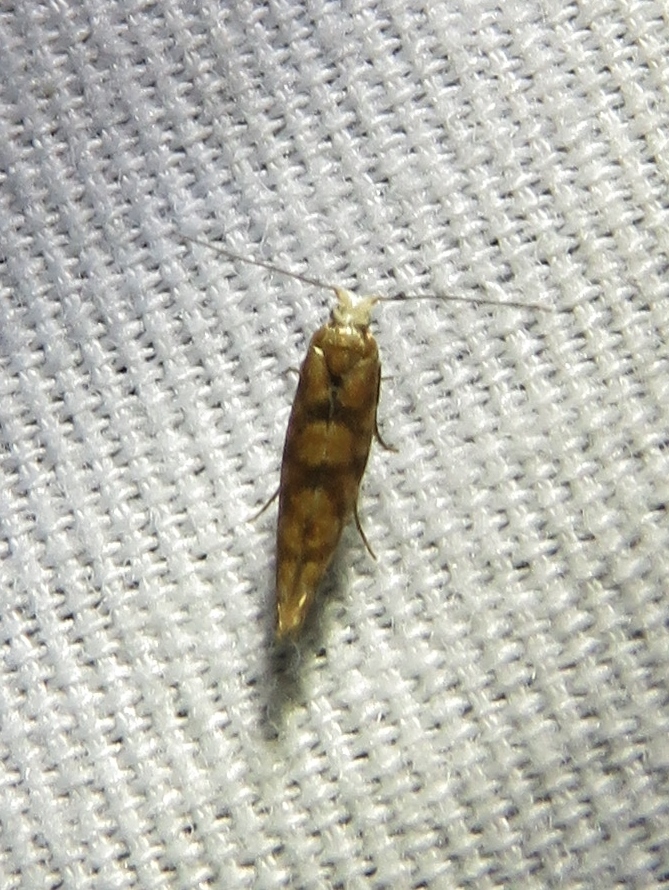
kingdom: Animalia
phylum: Arthropoda
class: Insecta
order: Lepidoptera
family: Argyresthiidae
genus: Argyresthia
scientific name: Argyresthia alternatella
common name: Juniper seed moth
